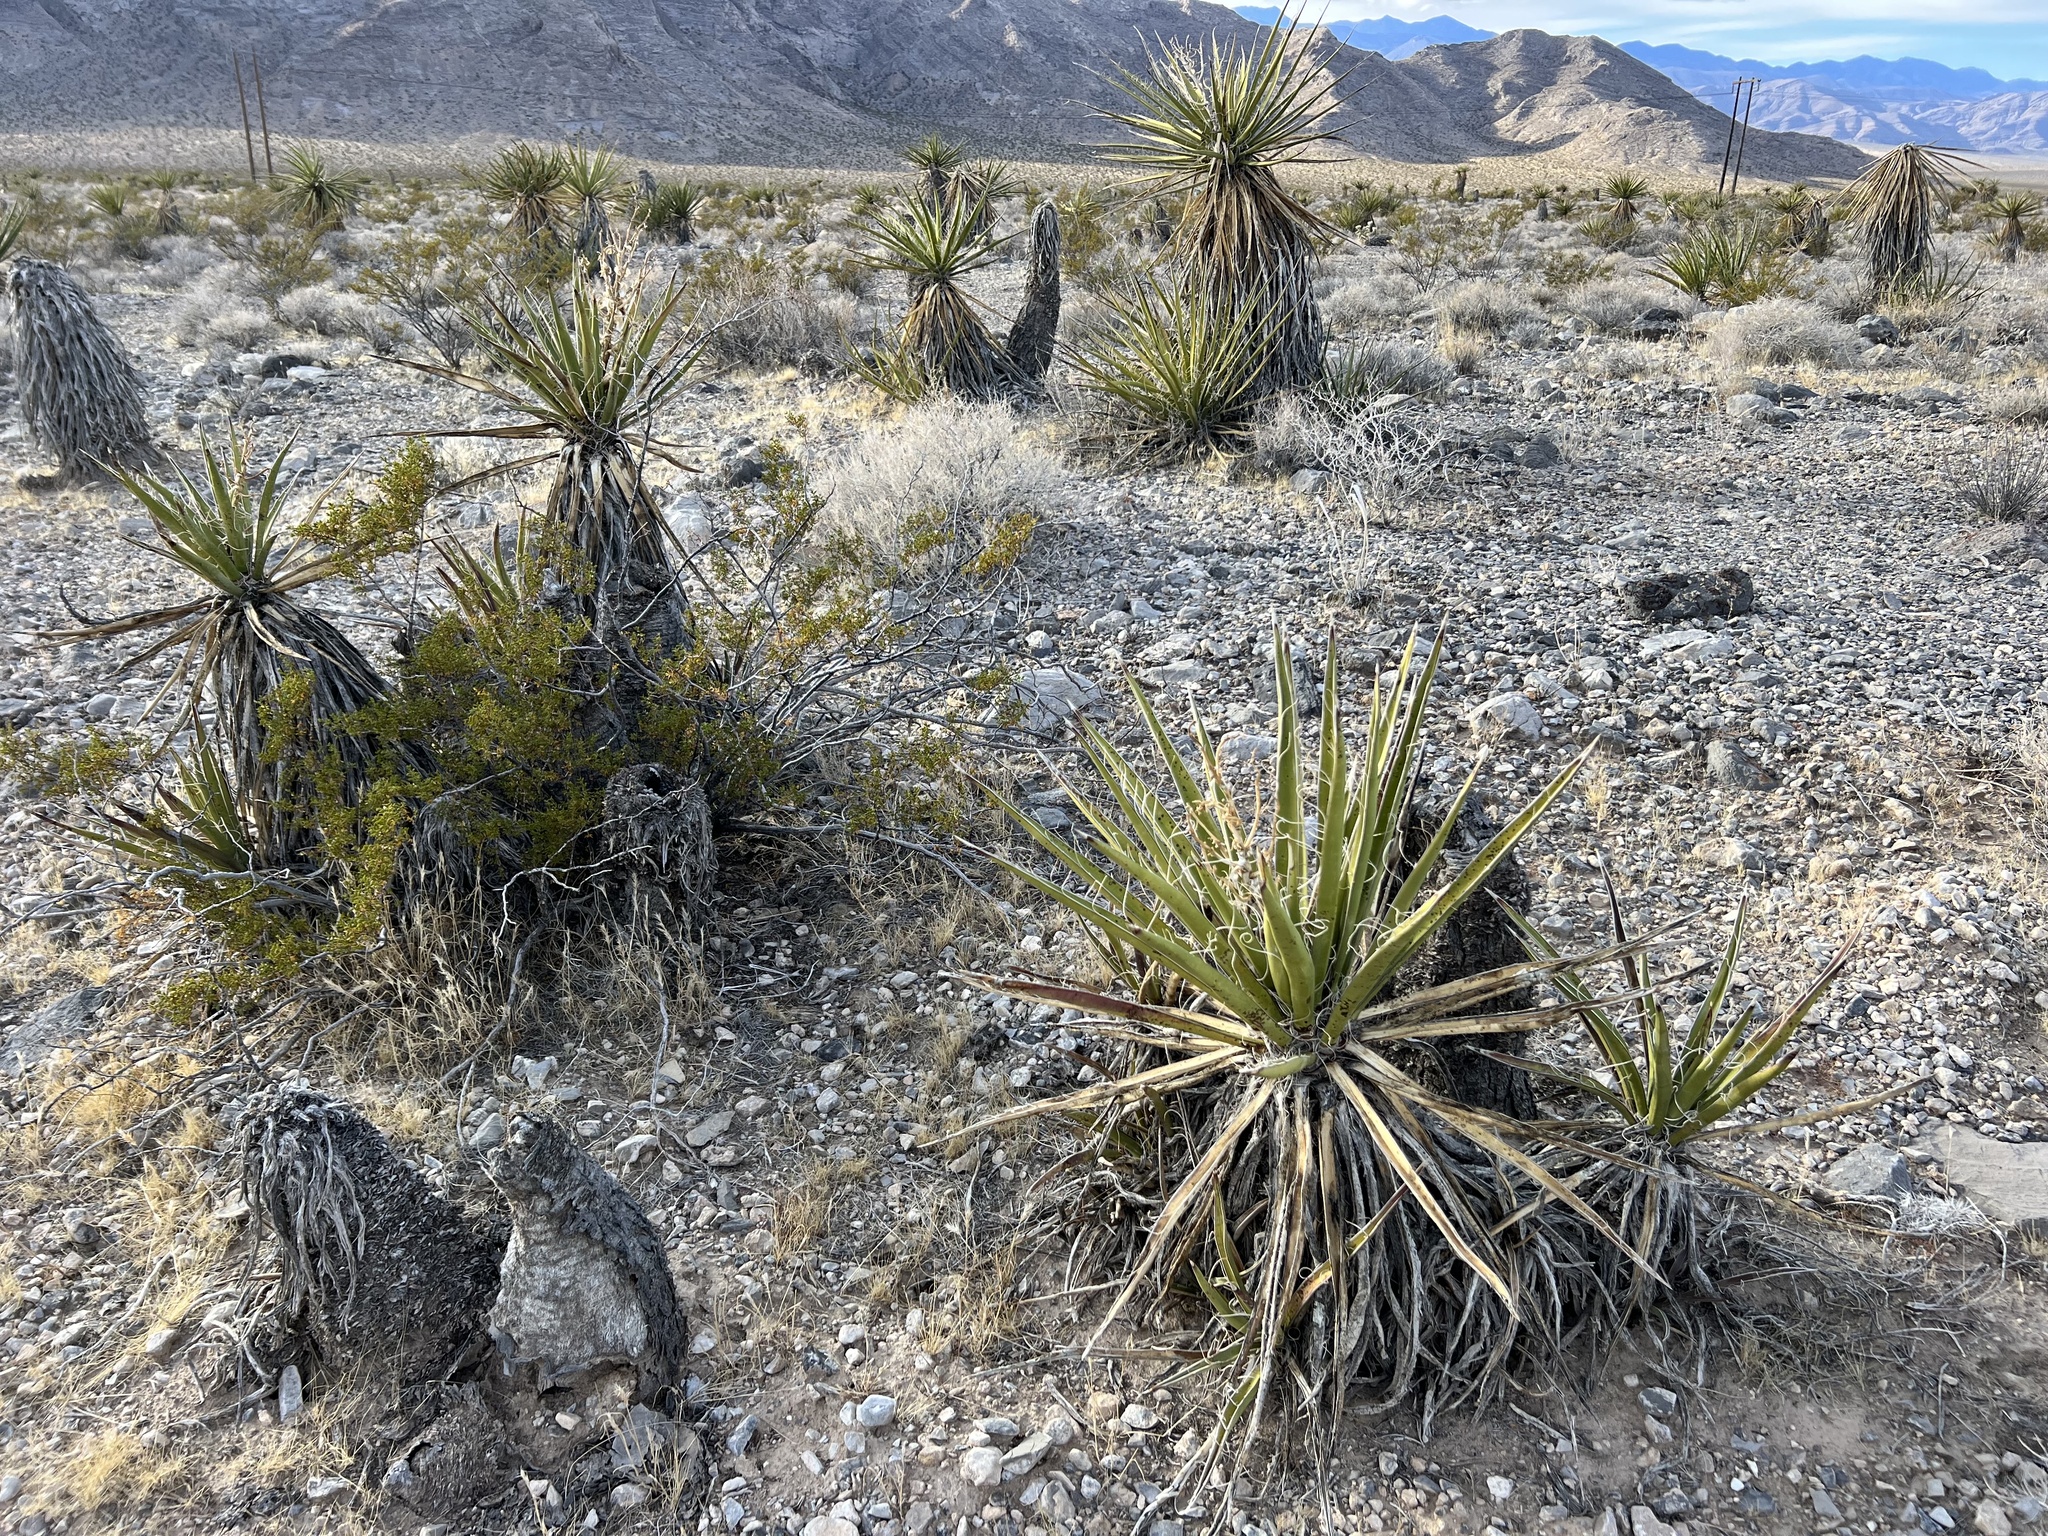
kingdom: Plantae
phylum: Tracheophyta
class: Liliopsida
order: Asparagales
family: Asparagaceae
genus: Yucca
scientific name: Yucca schidigera
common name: Mojave yucca
